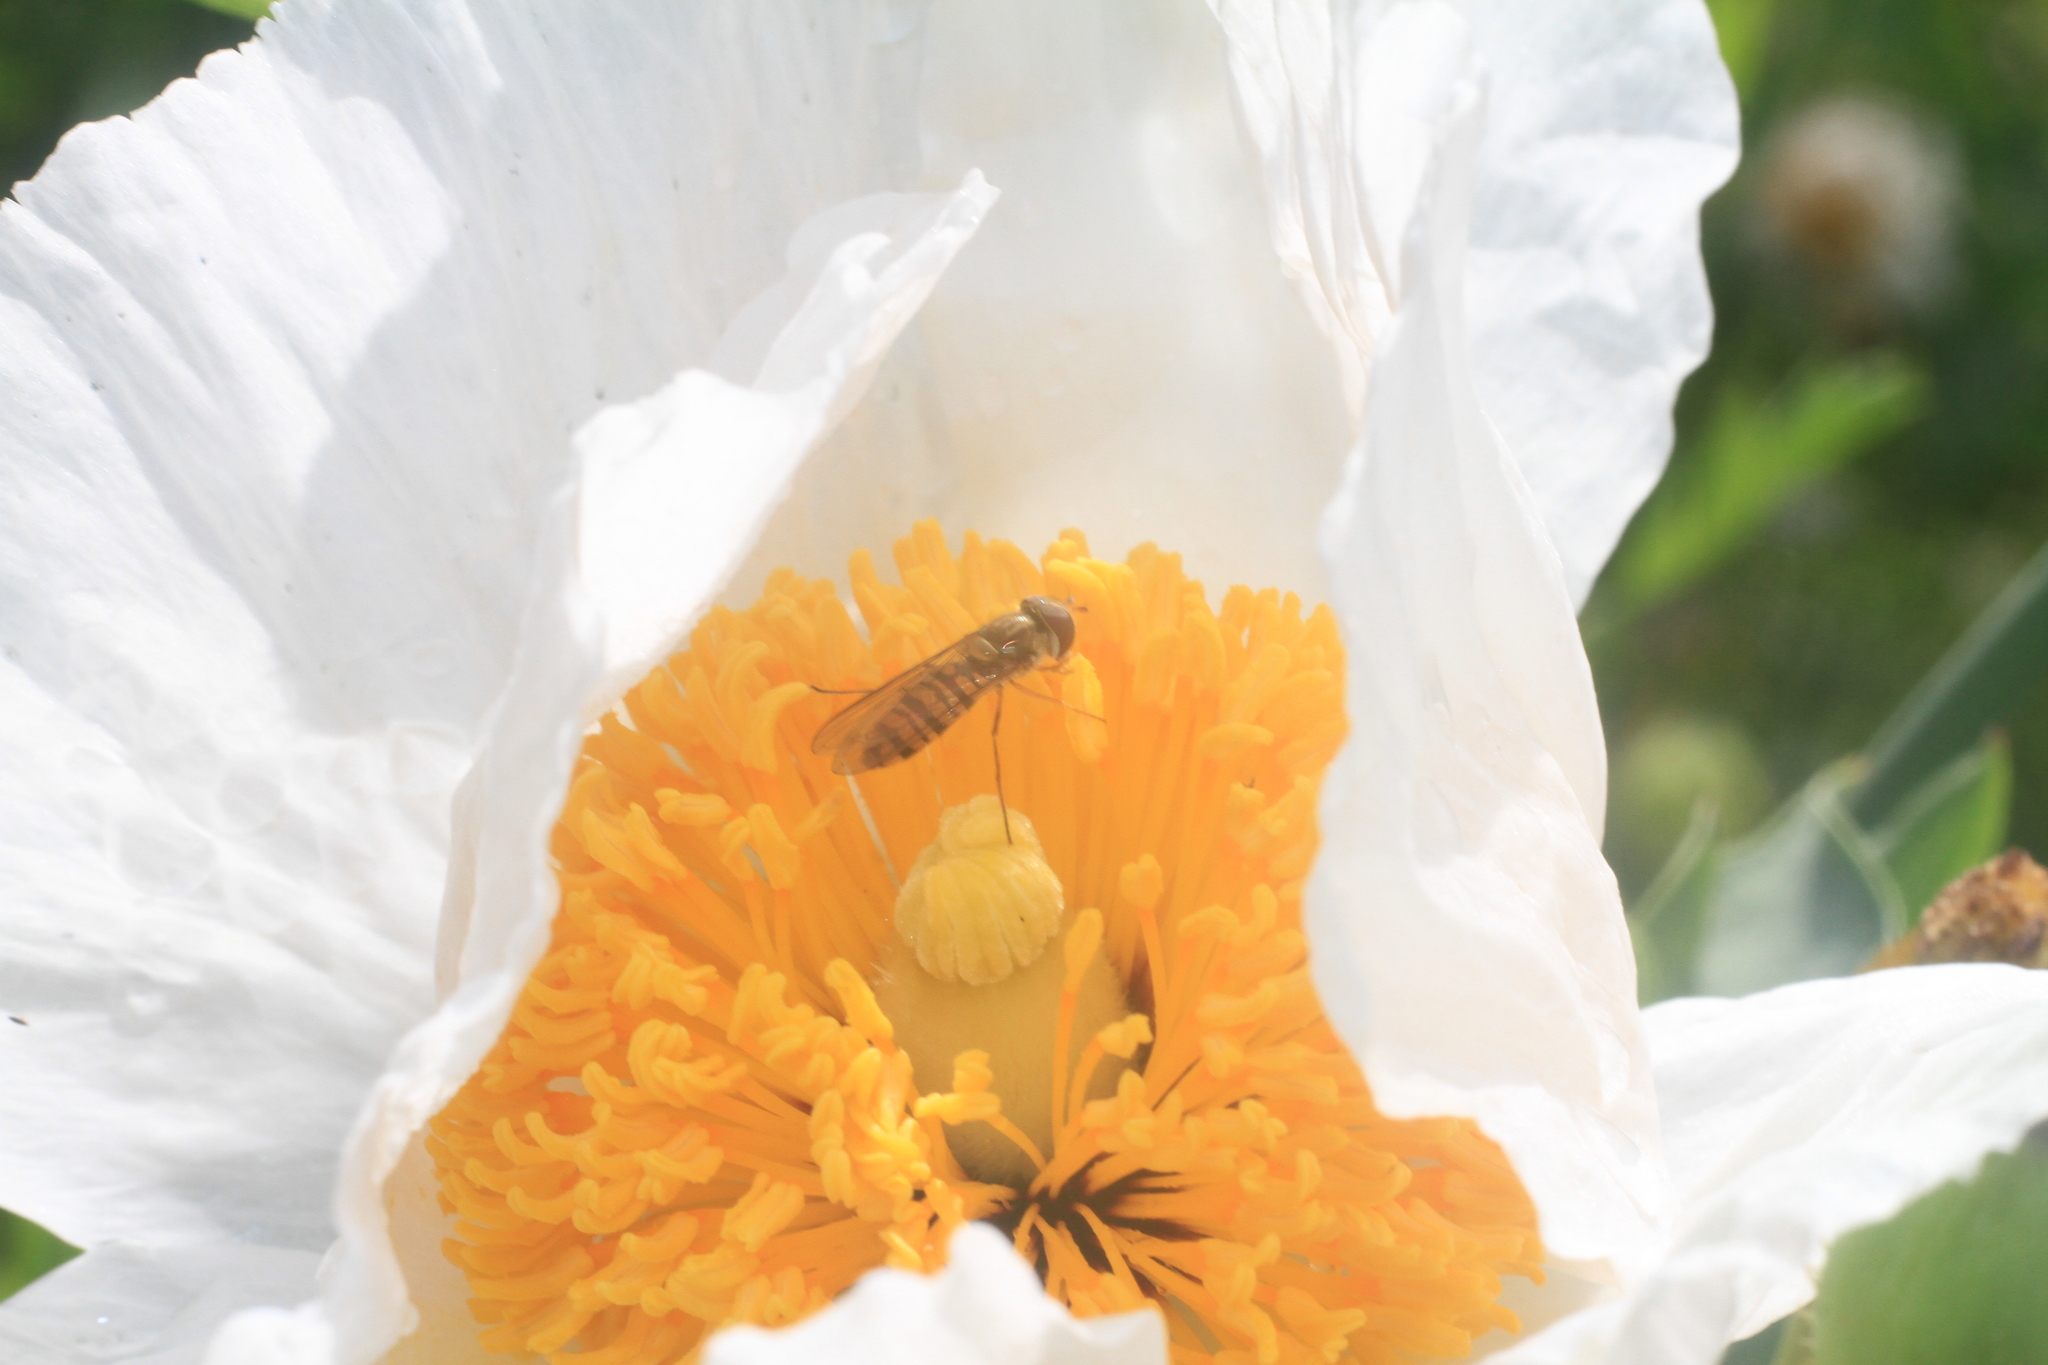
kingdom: Animalia
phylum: Arthropoda
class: Insecta
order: Diptera
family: Syrphidae
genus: Episyrphus
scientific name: Episyrphus balteatus
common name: Marmalade hoverfly
